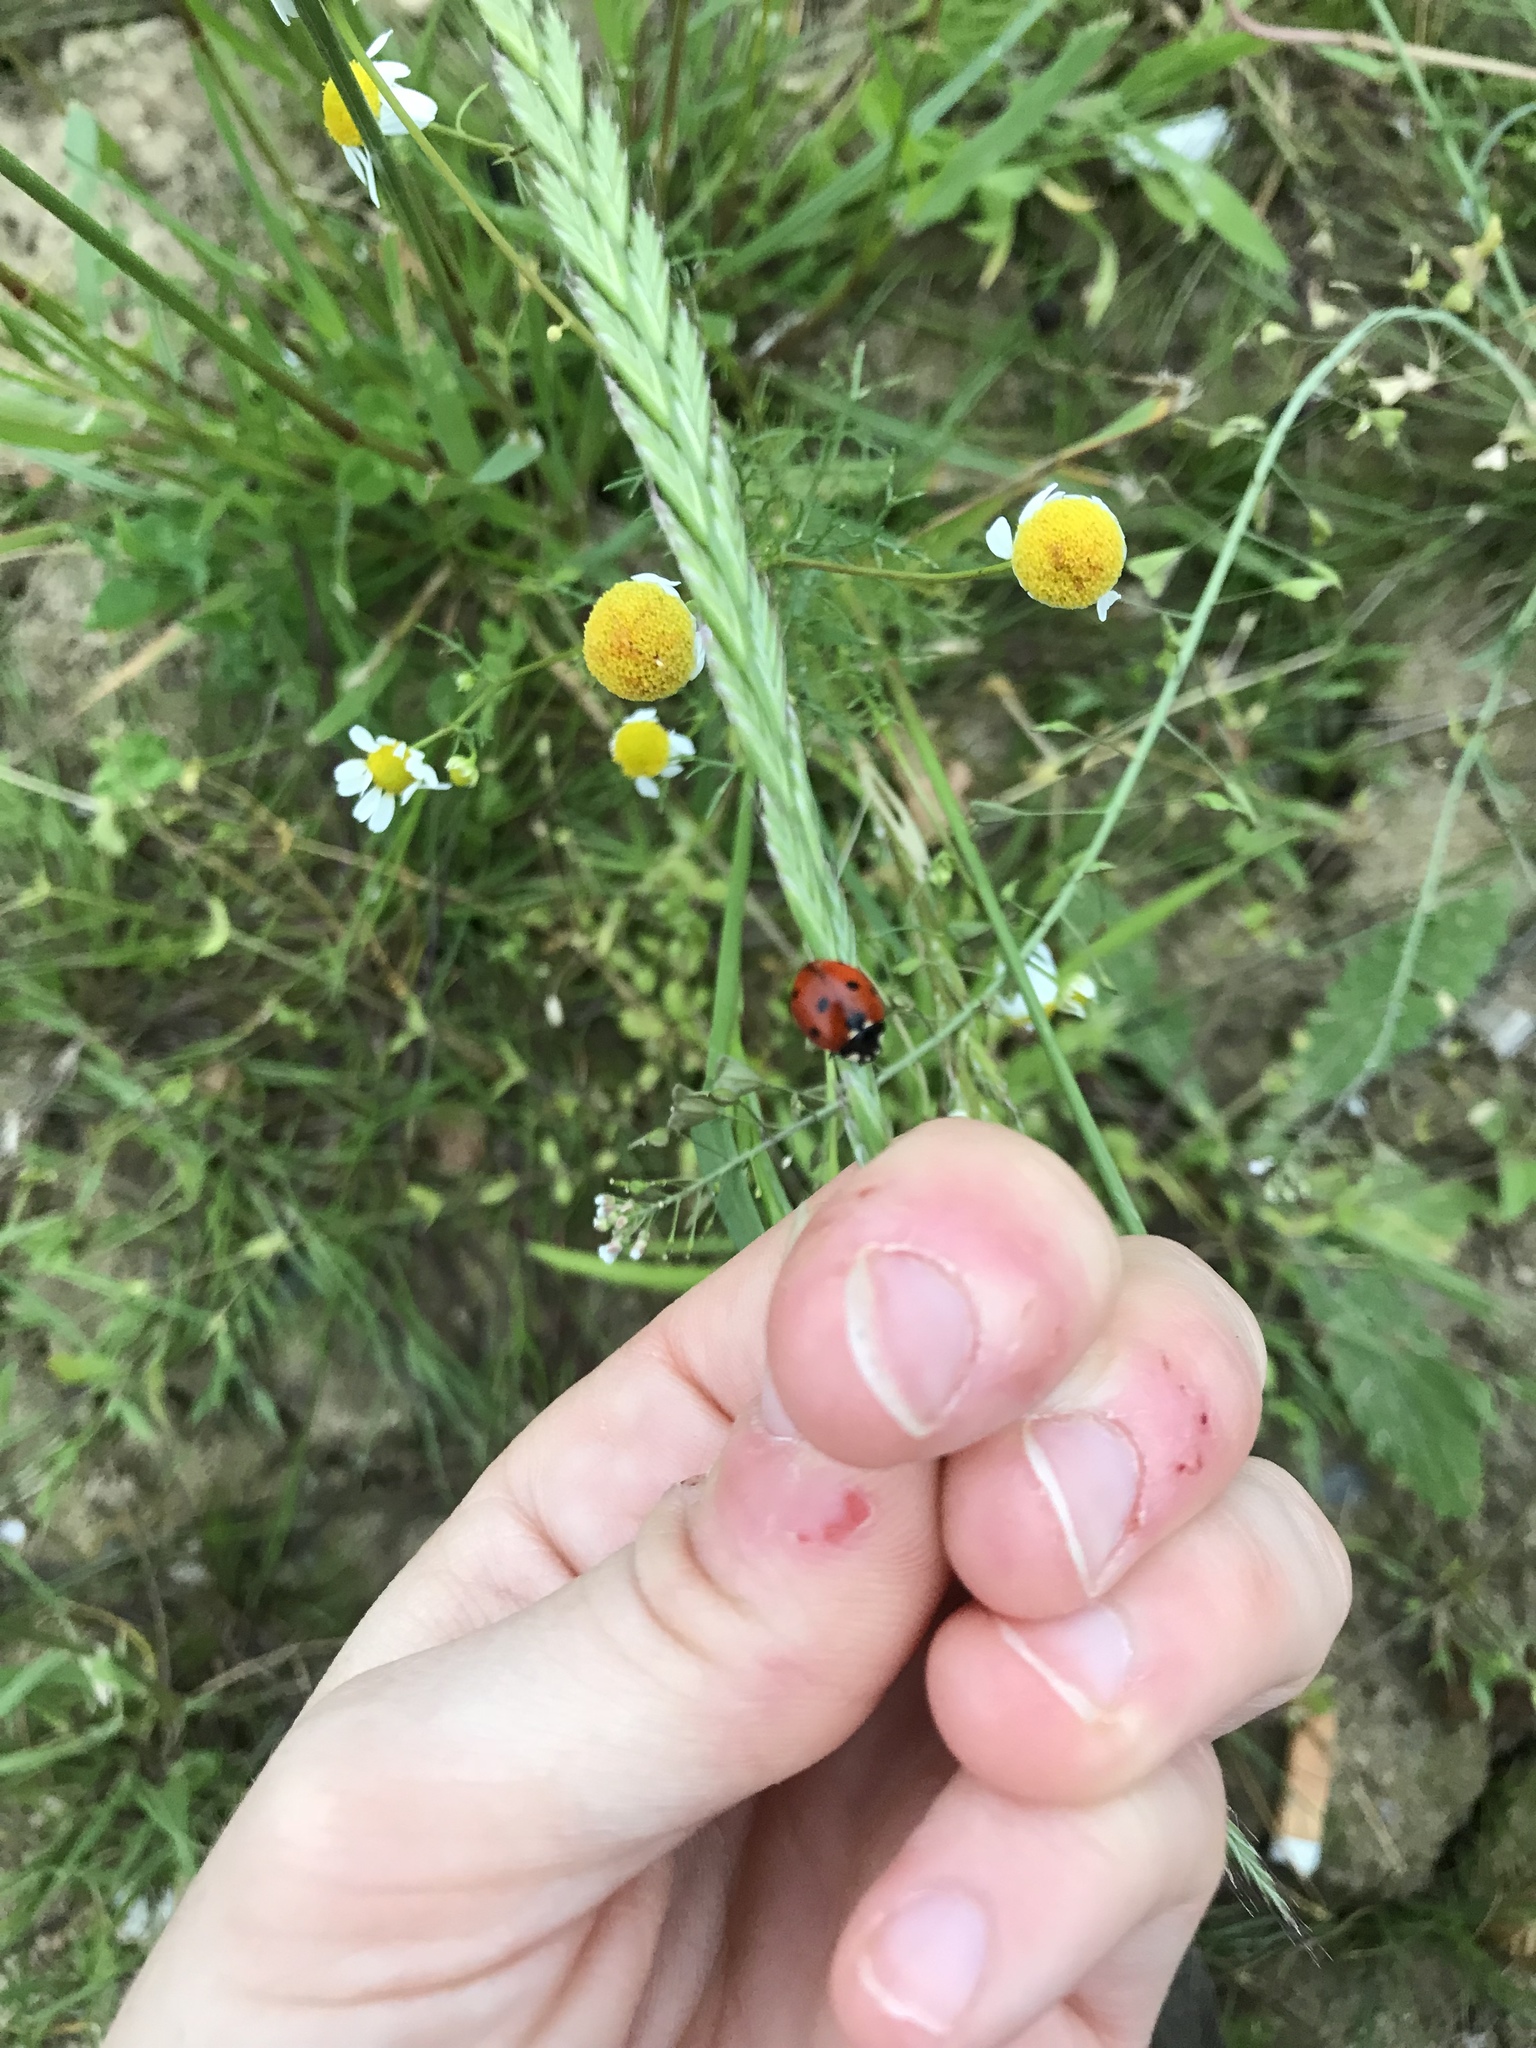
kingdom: Animalia
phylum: Arthropoda
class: Insecta
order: Coleoptera
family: Coccinellidae
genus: Coccinella
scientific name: Coccinella septempunctata
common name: Sevenspotted lady beetle
